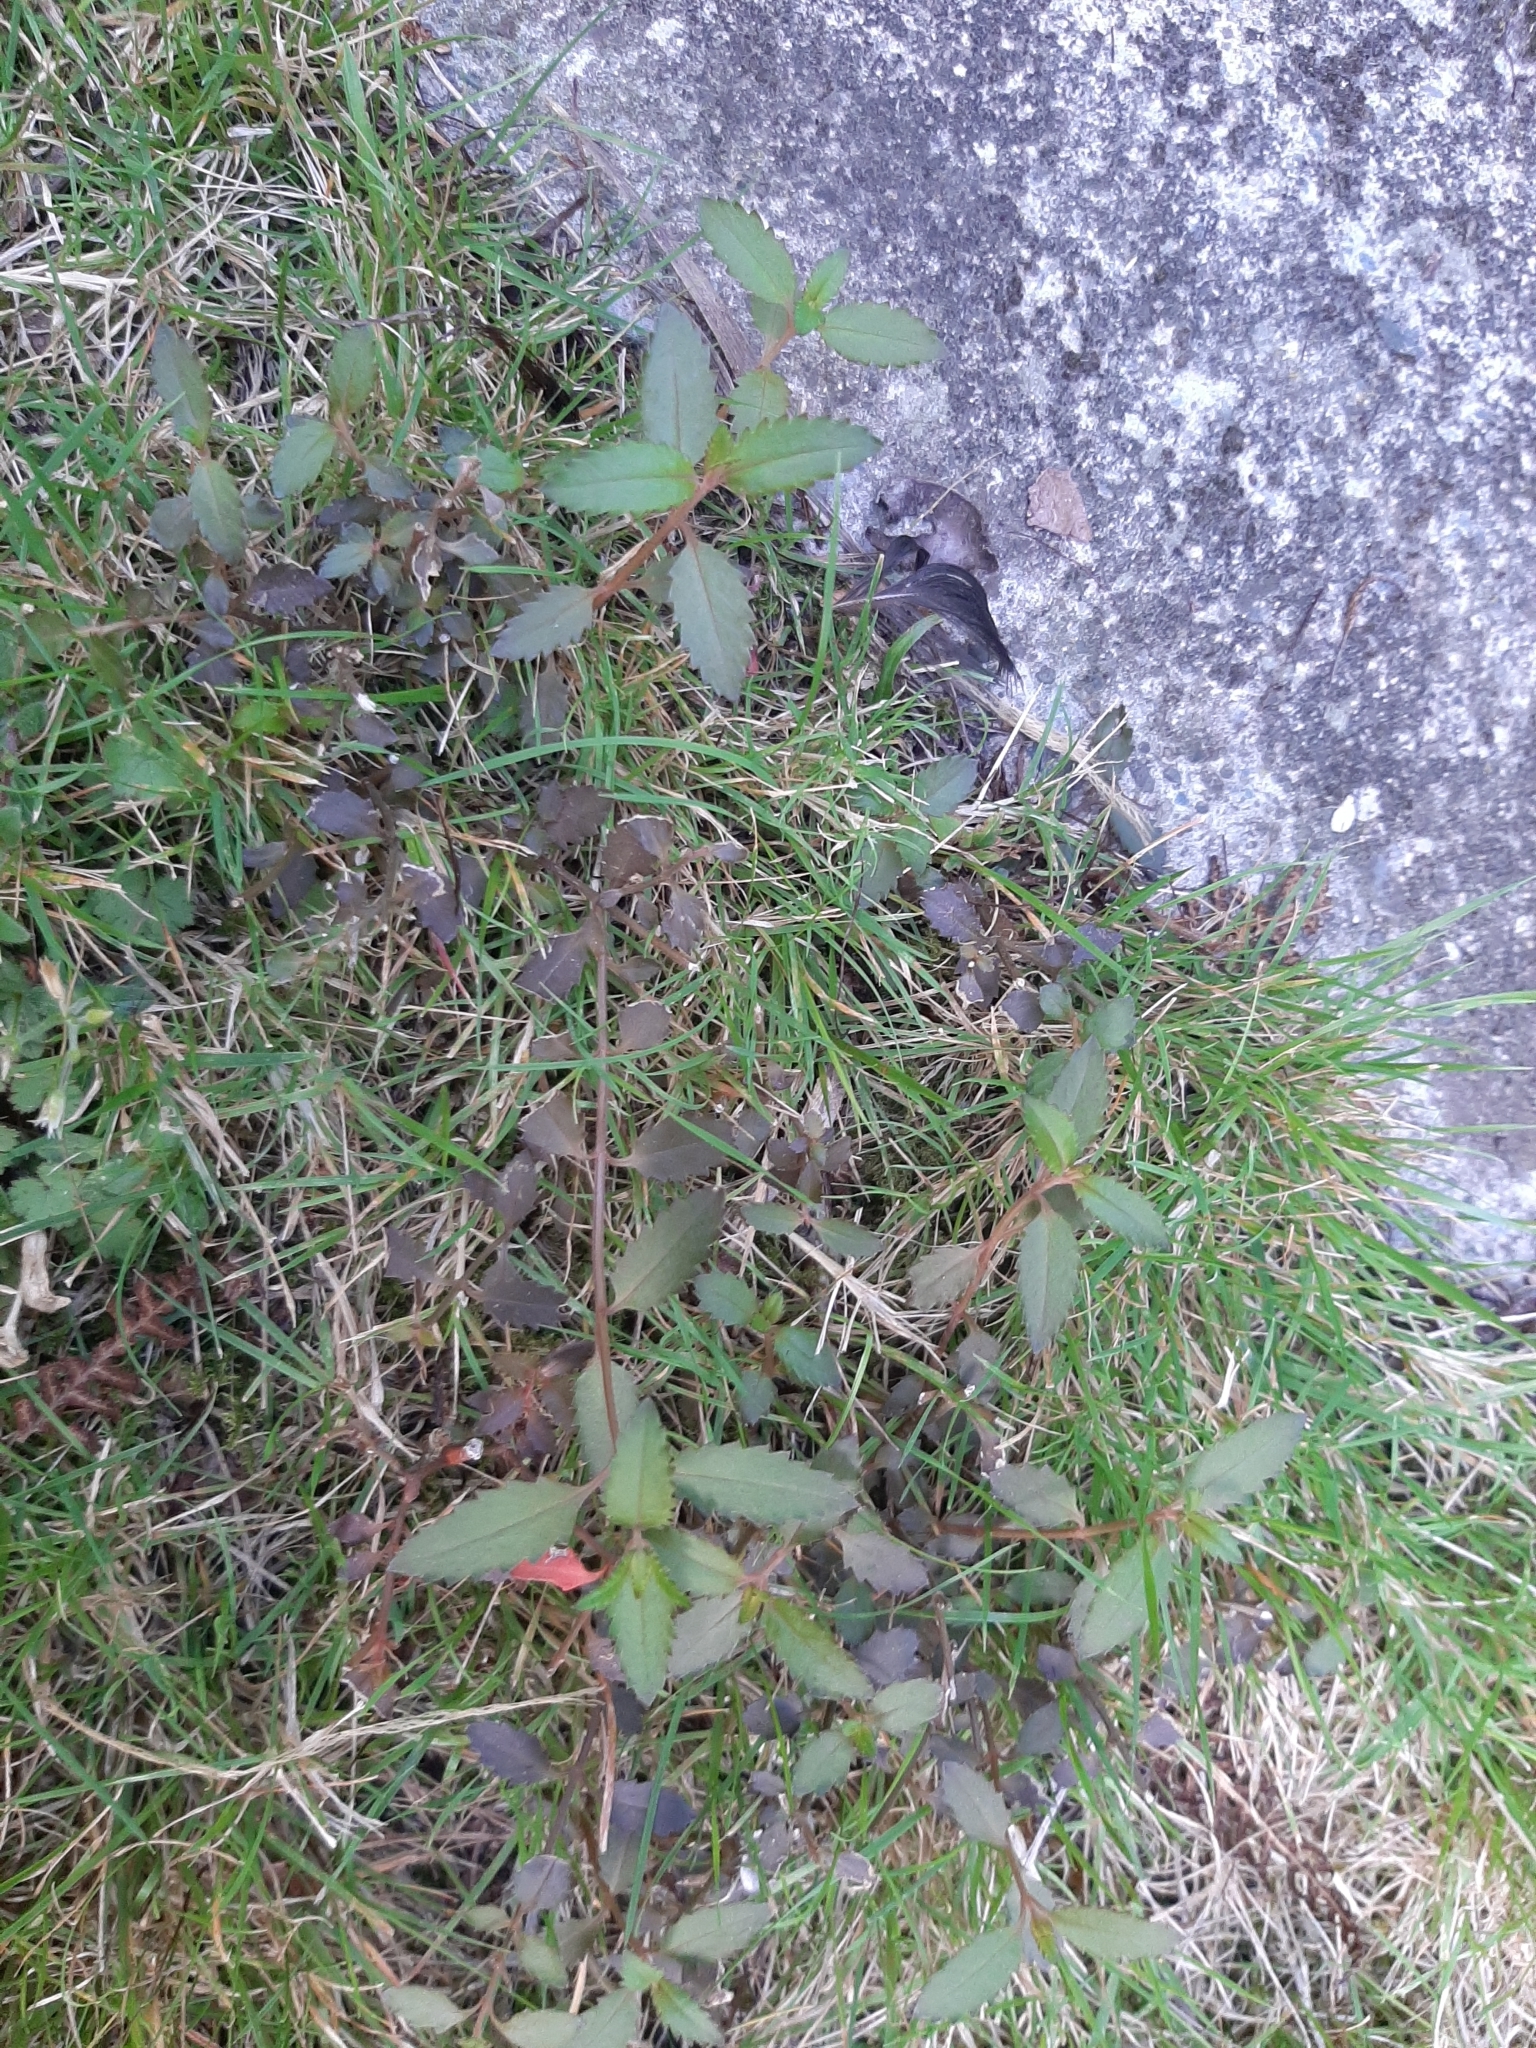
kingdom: Plantae
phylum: Tracheophyta
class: Magnoliopsida
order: Saxifragales
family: Haloragaceae
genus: Haloragis
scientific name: Haloragis erecta
